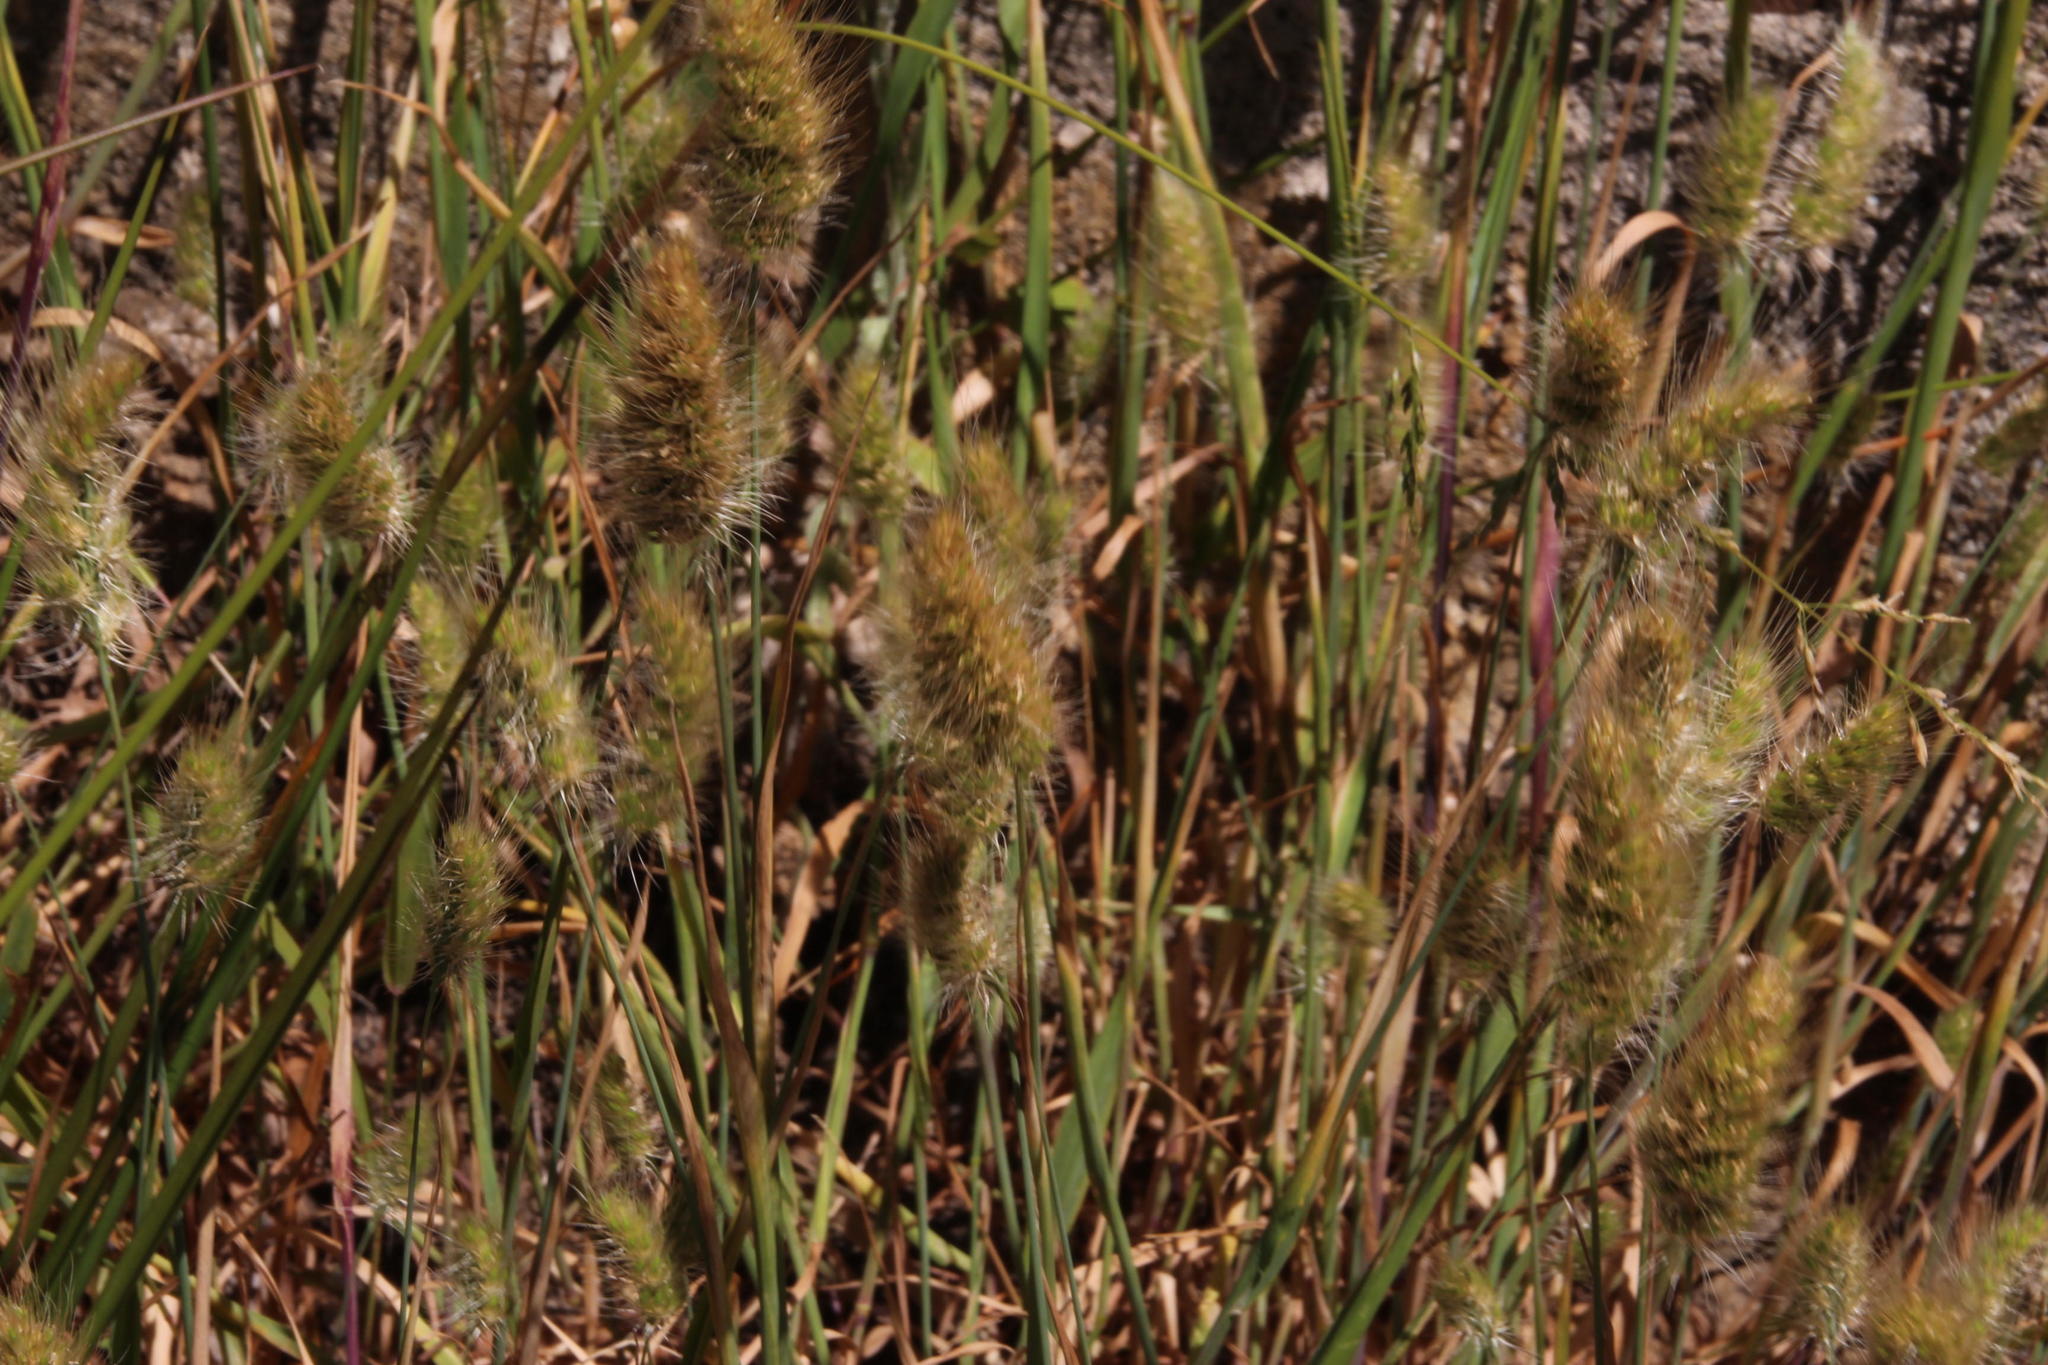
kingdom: Plantae
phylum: Tracheophyta
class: Liliopsida
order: Poales
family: Poaceae
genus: Cynosurus
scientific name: Cynosurus echinatus
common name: Rough dog's-tail
